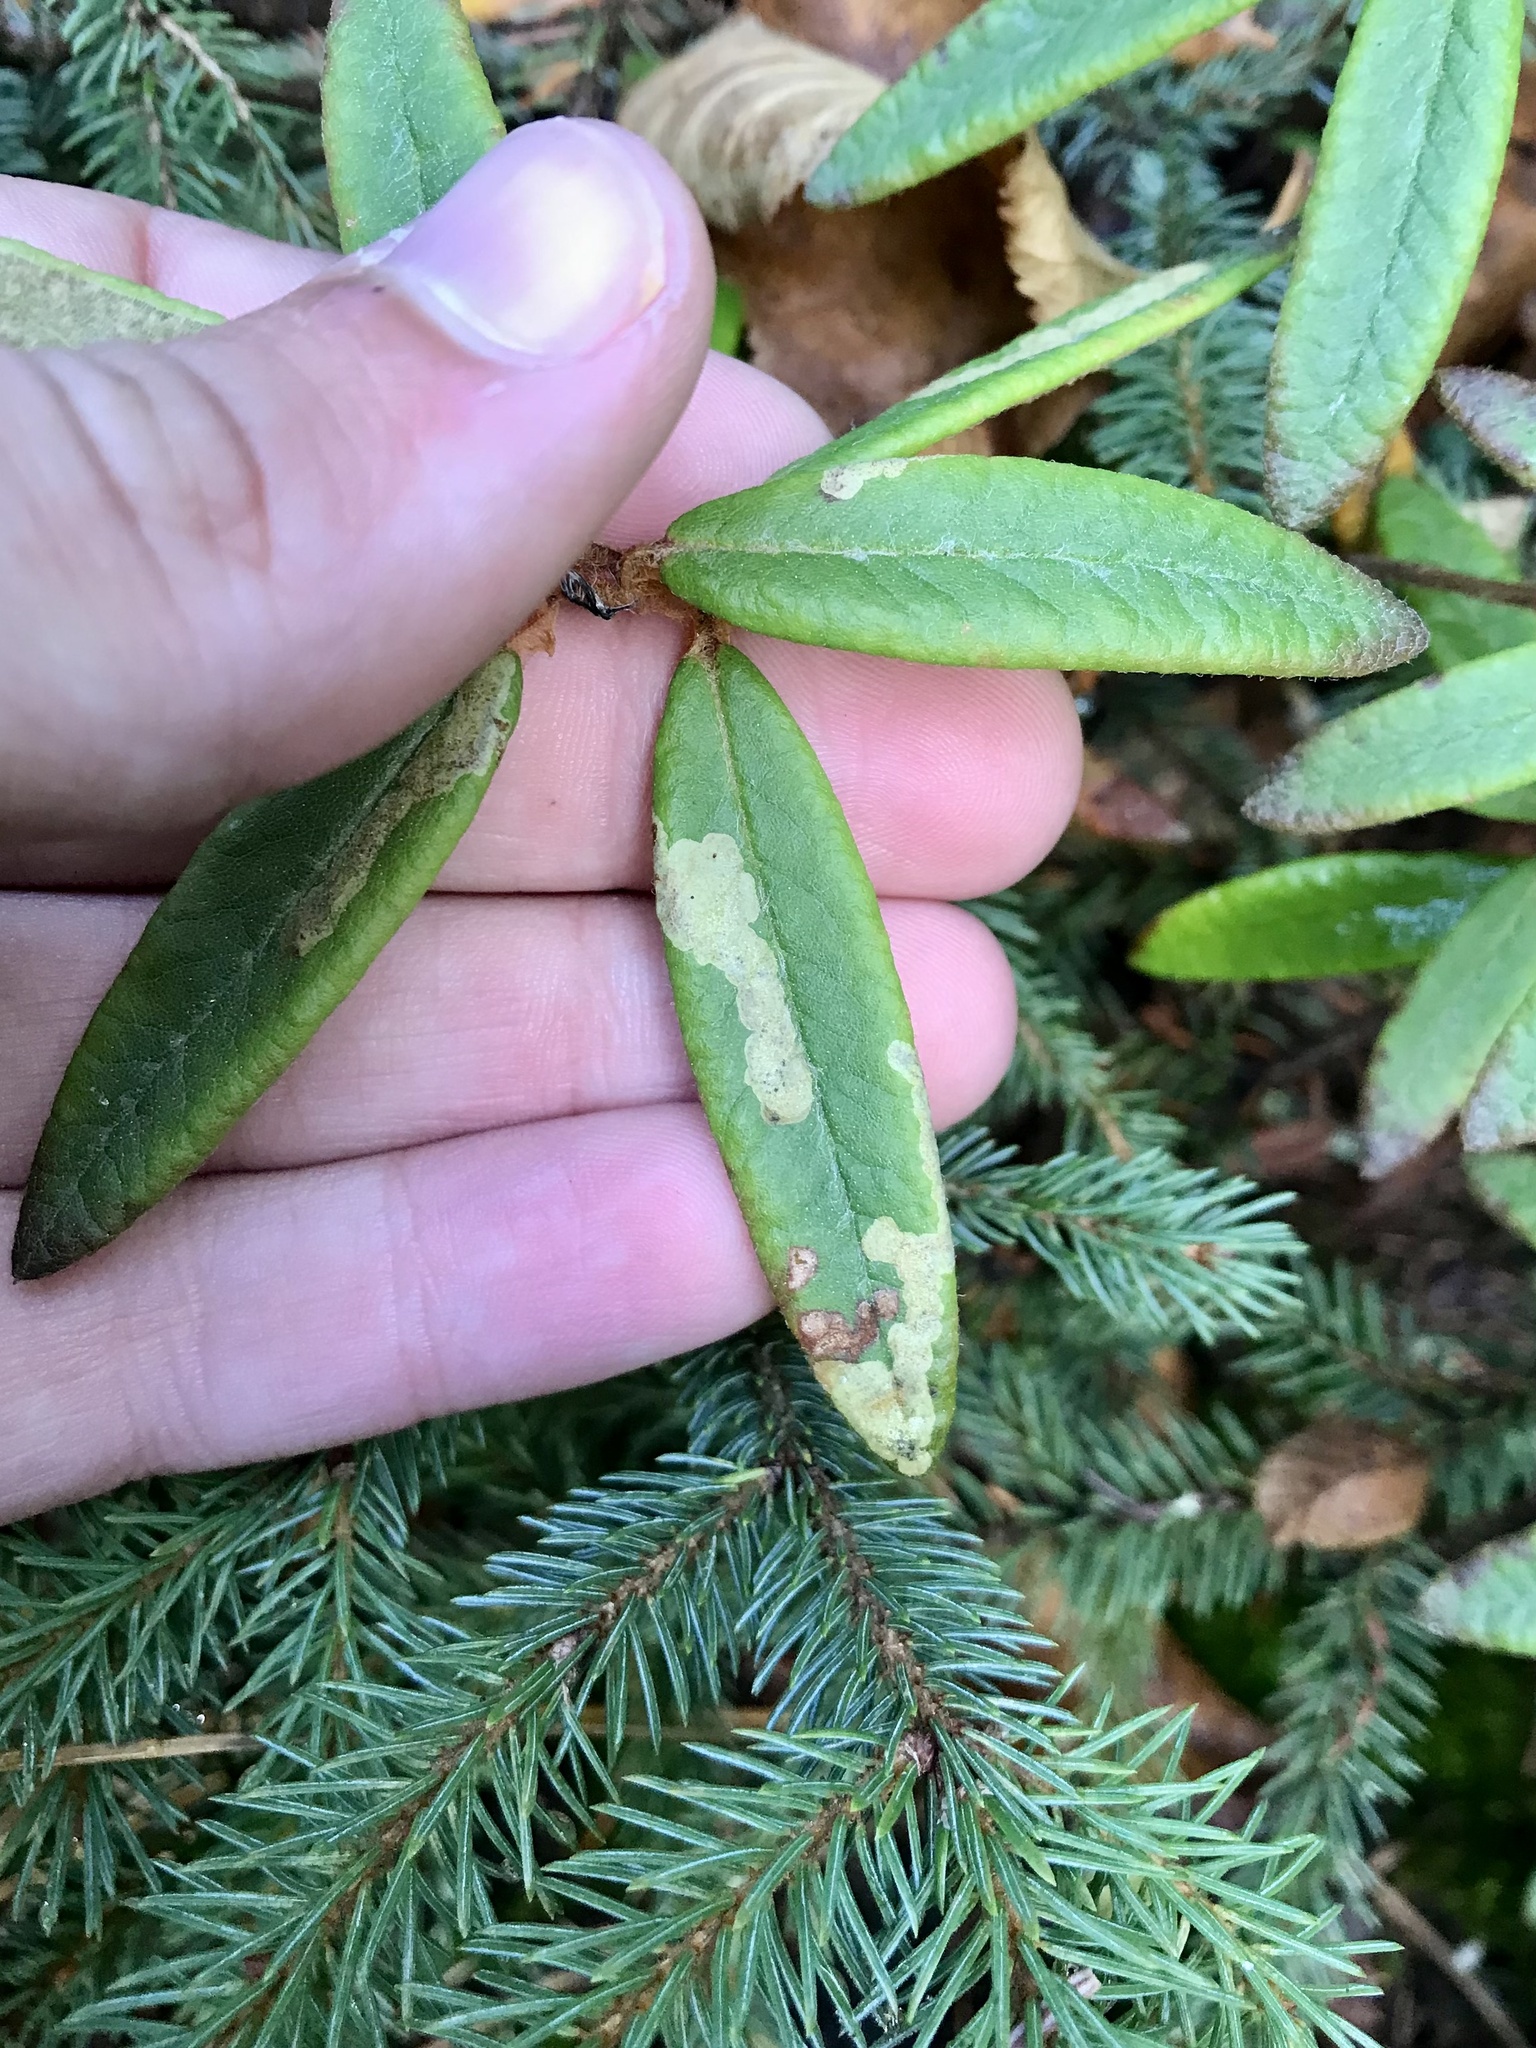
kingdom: Animalia
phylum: Arthropoda
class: Insecta
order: Lepidoptera
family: Gracillariidae
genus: Phyllonorycter
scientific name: Phyllonorycter ledella
